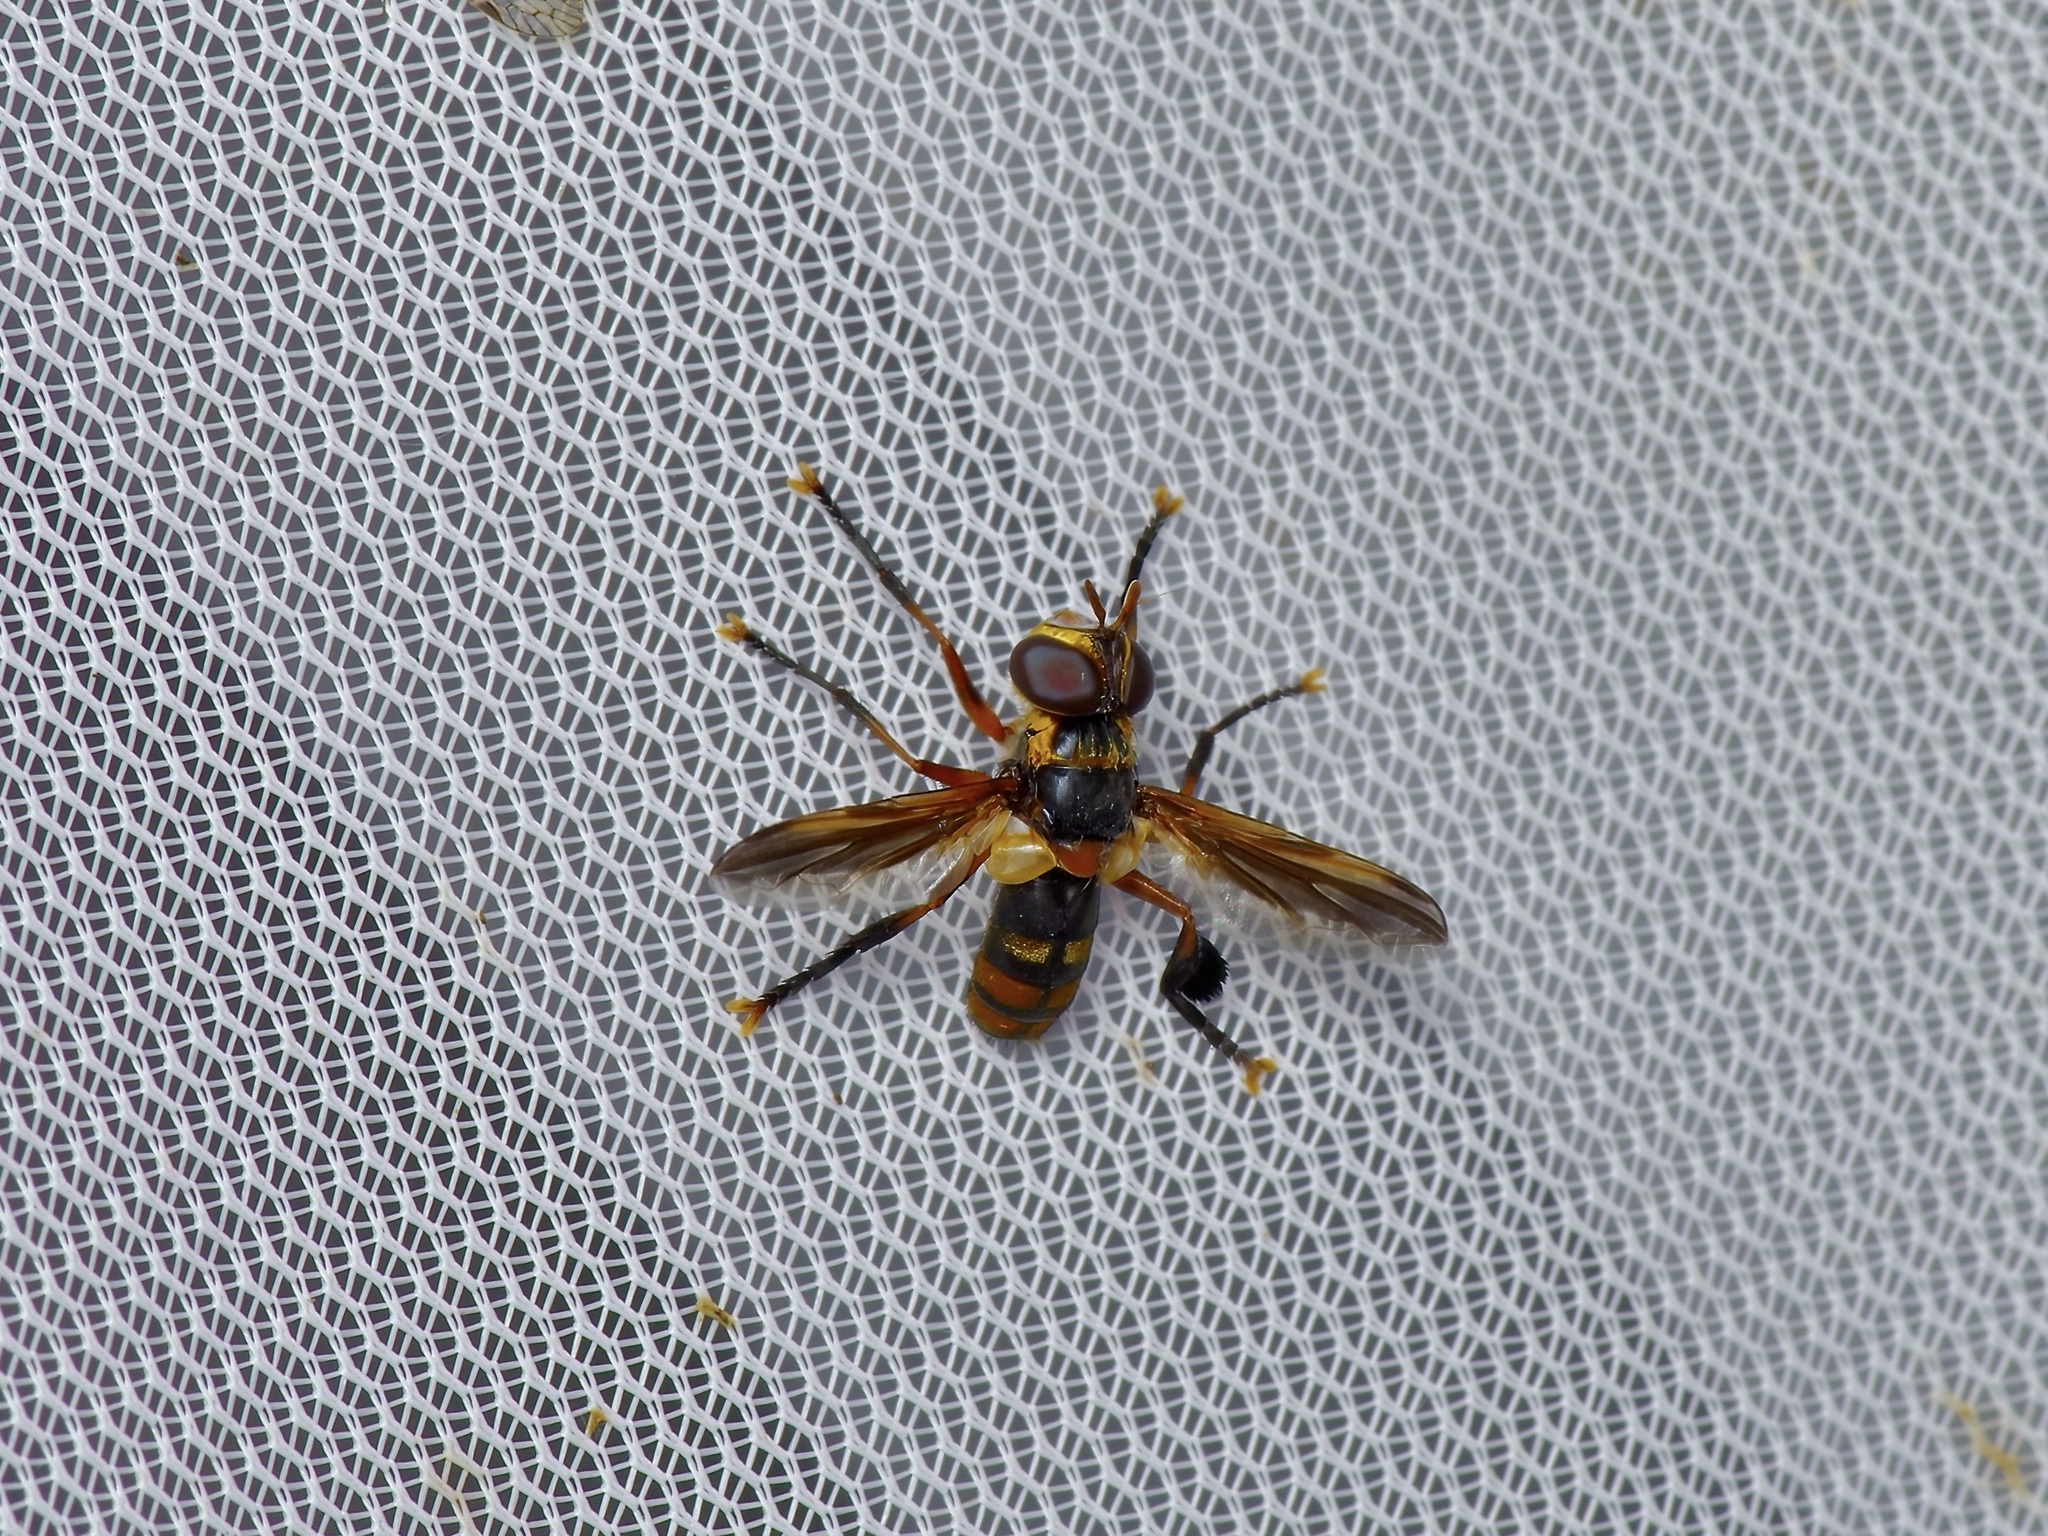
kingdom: Animalia
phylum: Arthropoda
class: Insecta
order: Diptera
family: Tachinidae
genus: Trichopoda
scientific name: Trichopoda plumipes
